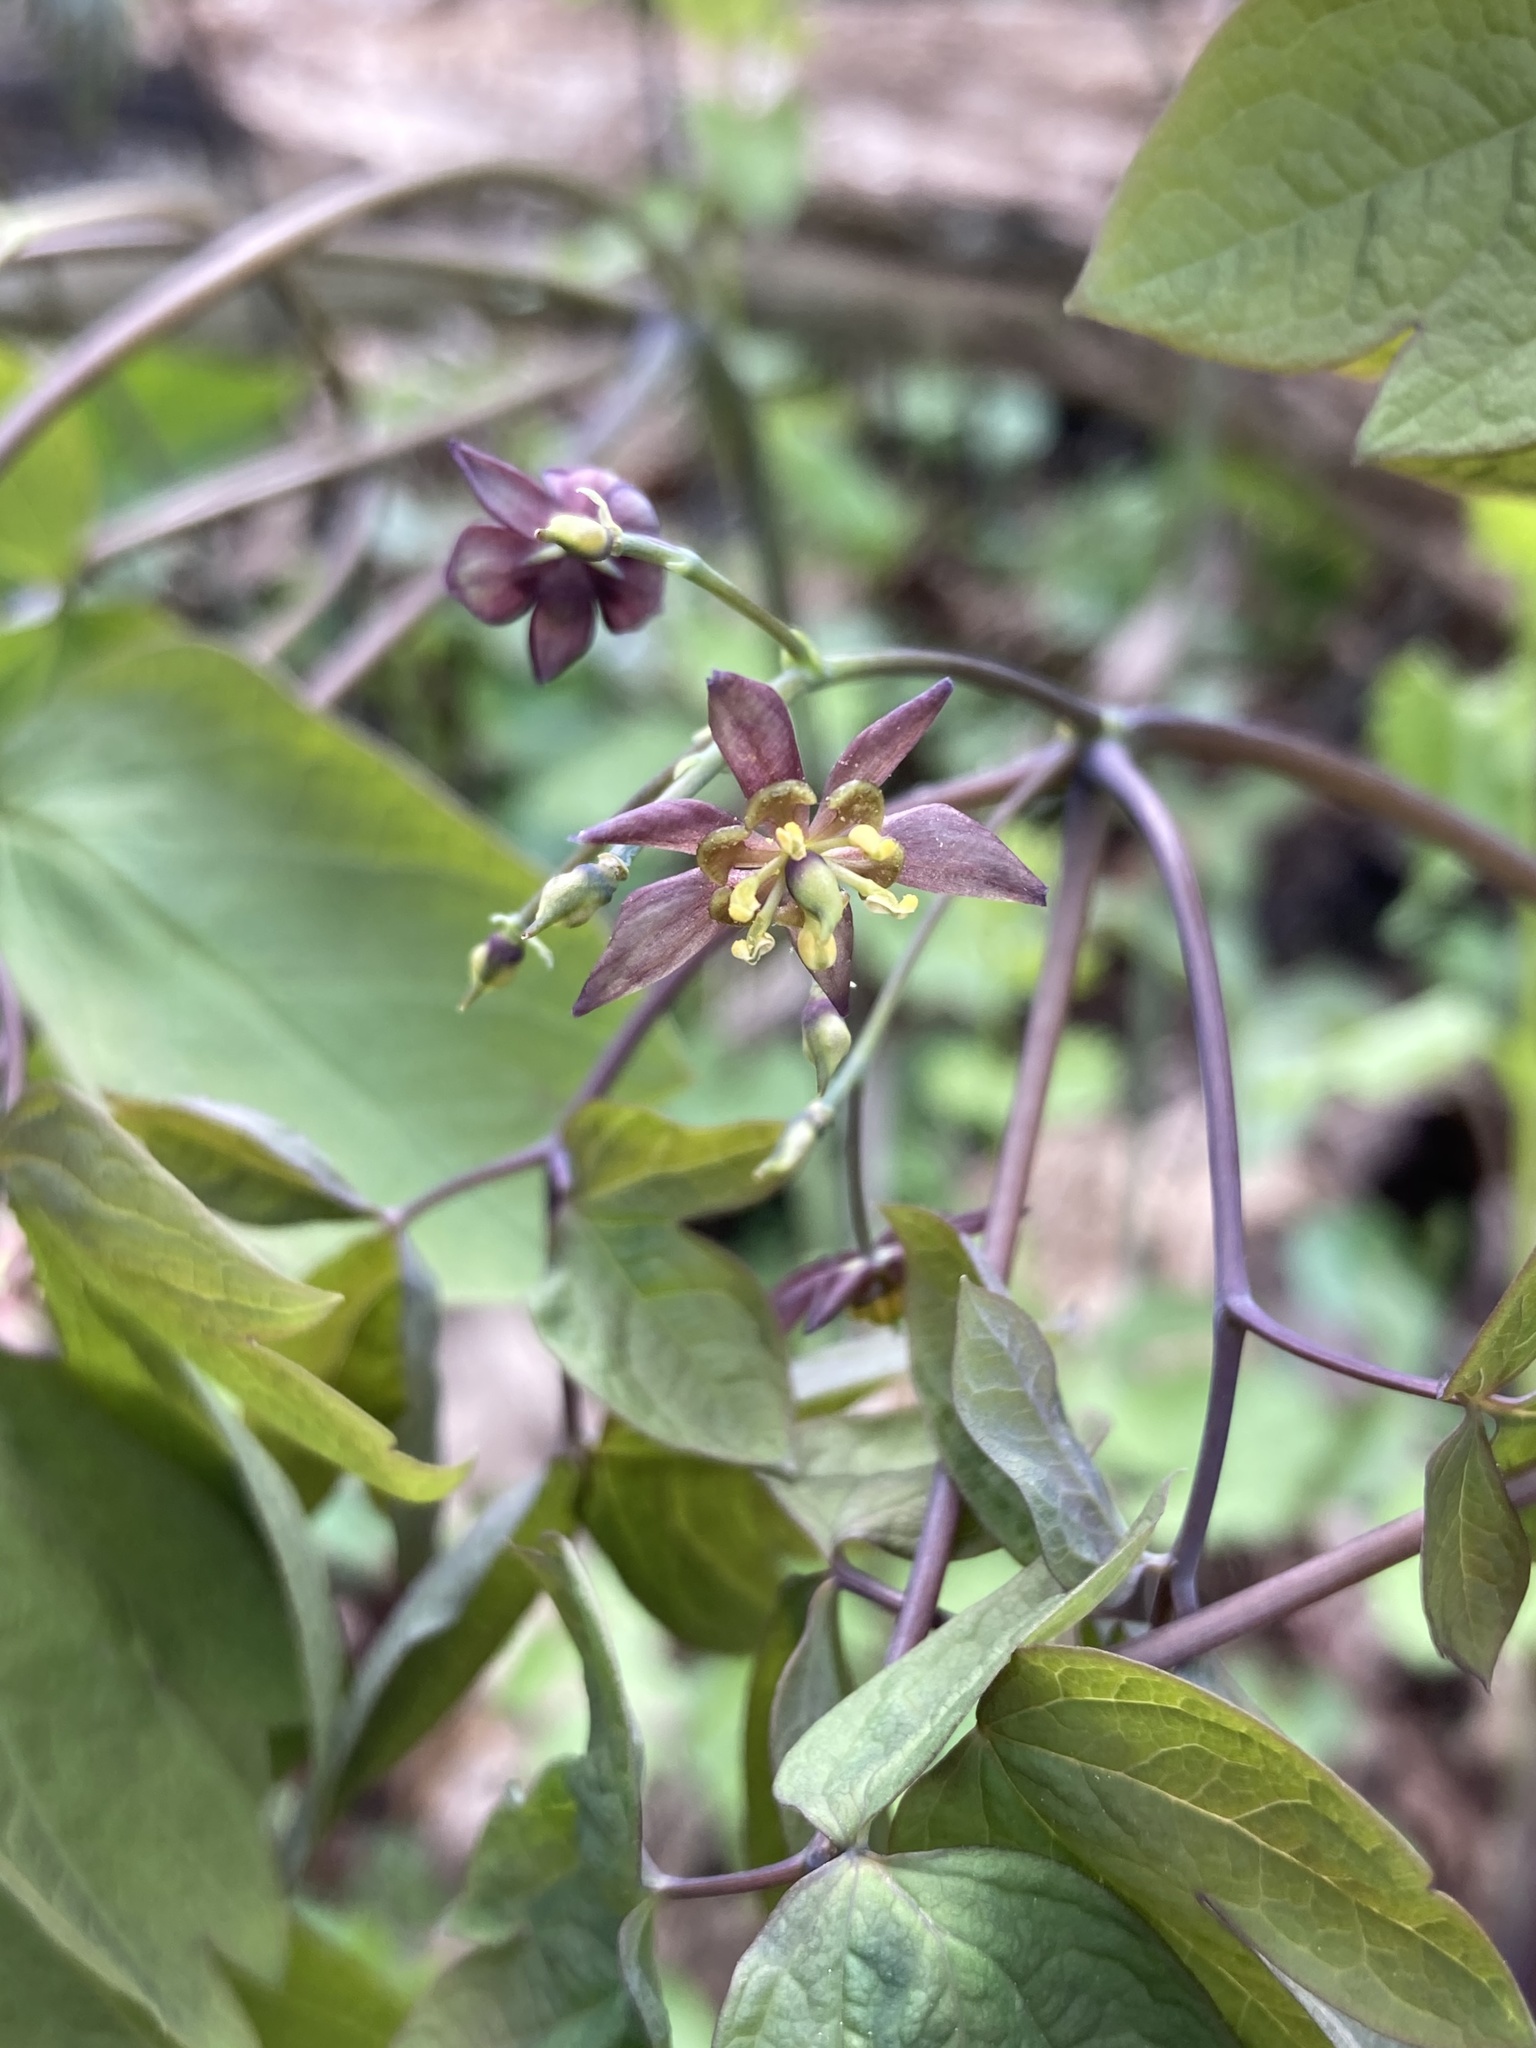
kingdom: Plantae
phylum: Tracheophyta
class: Magnoliopsida
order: Ranunculales
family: Berberidaceae
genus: Caulophyllum
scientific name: Caulophyllum giganteum
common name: Blue cohosh
